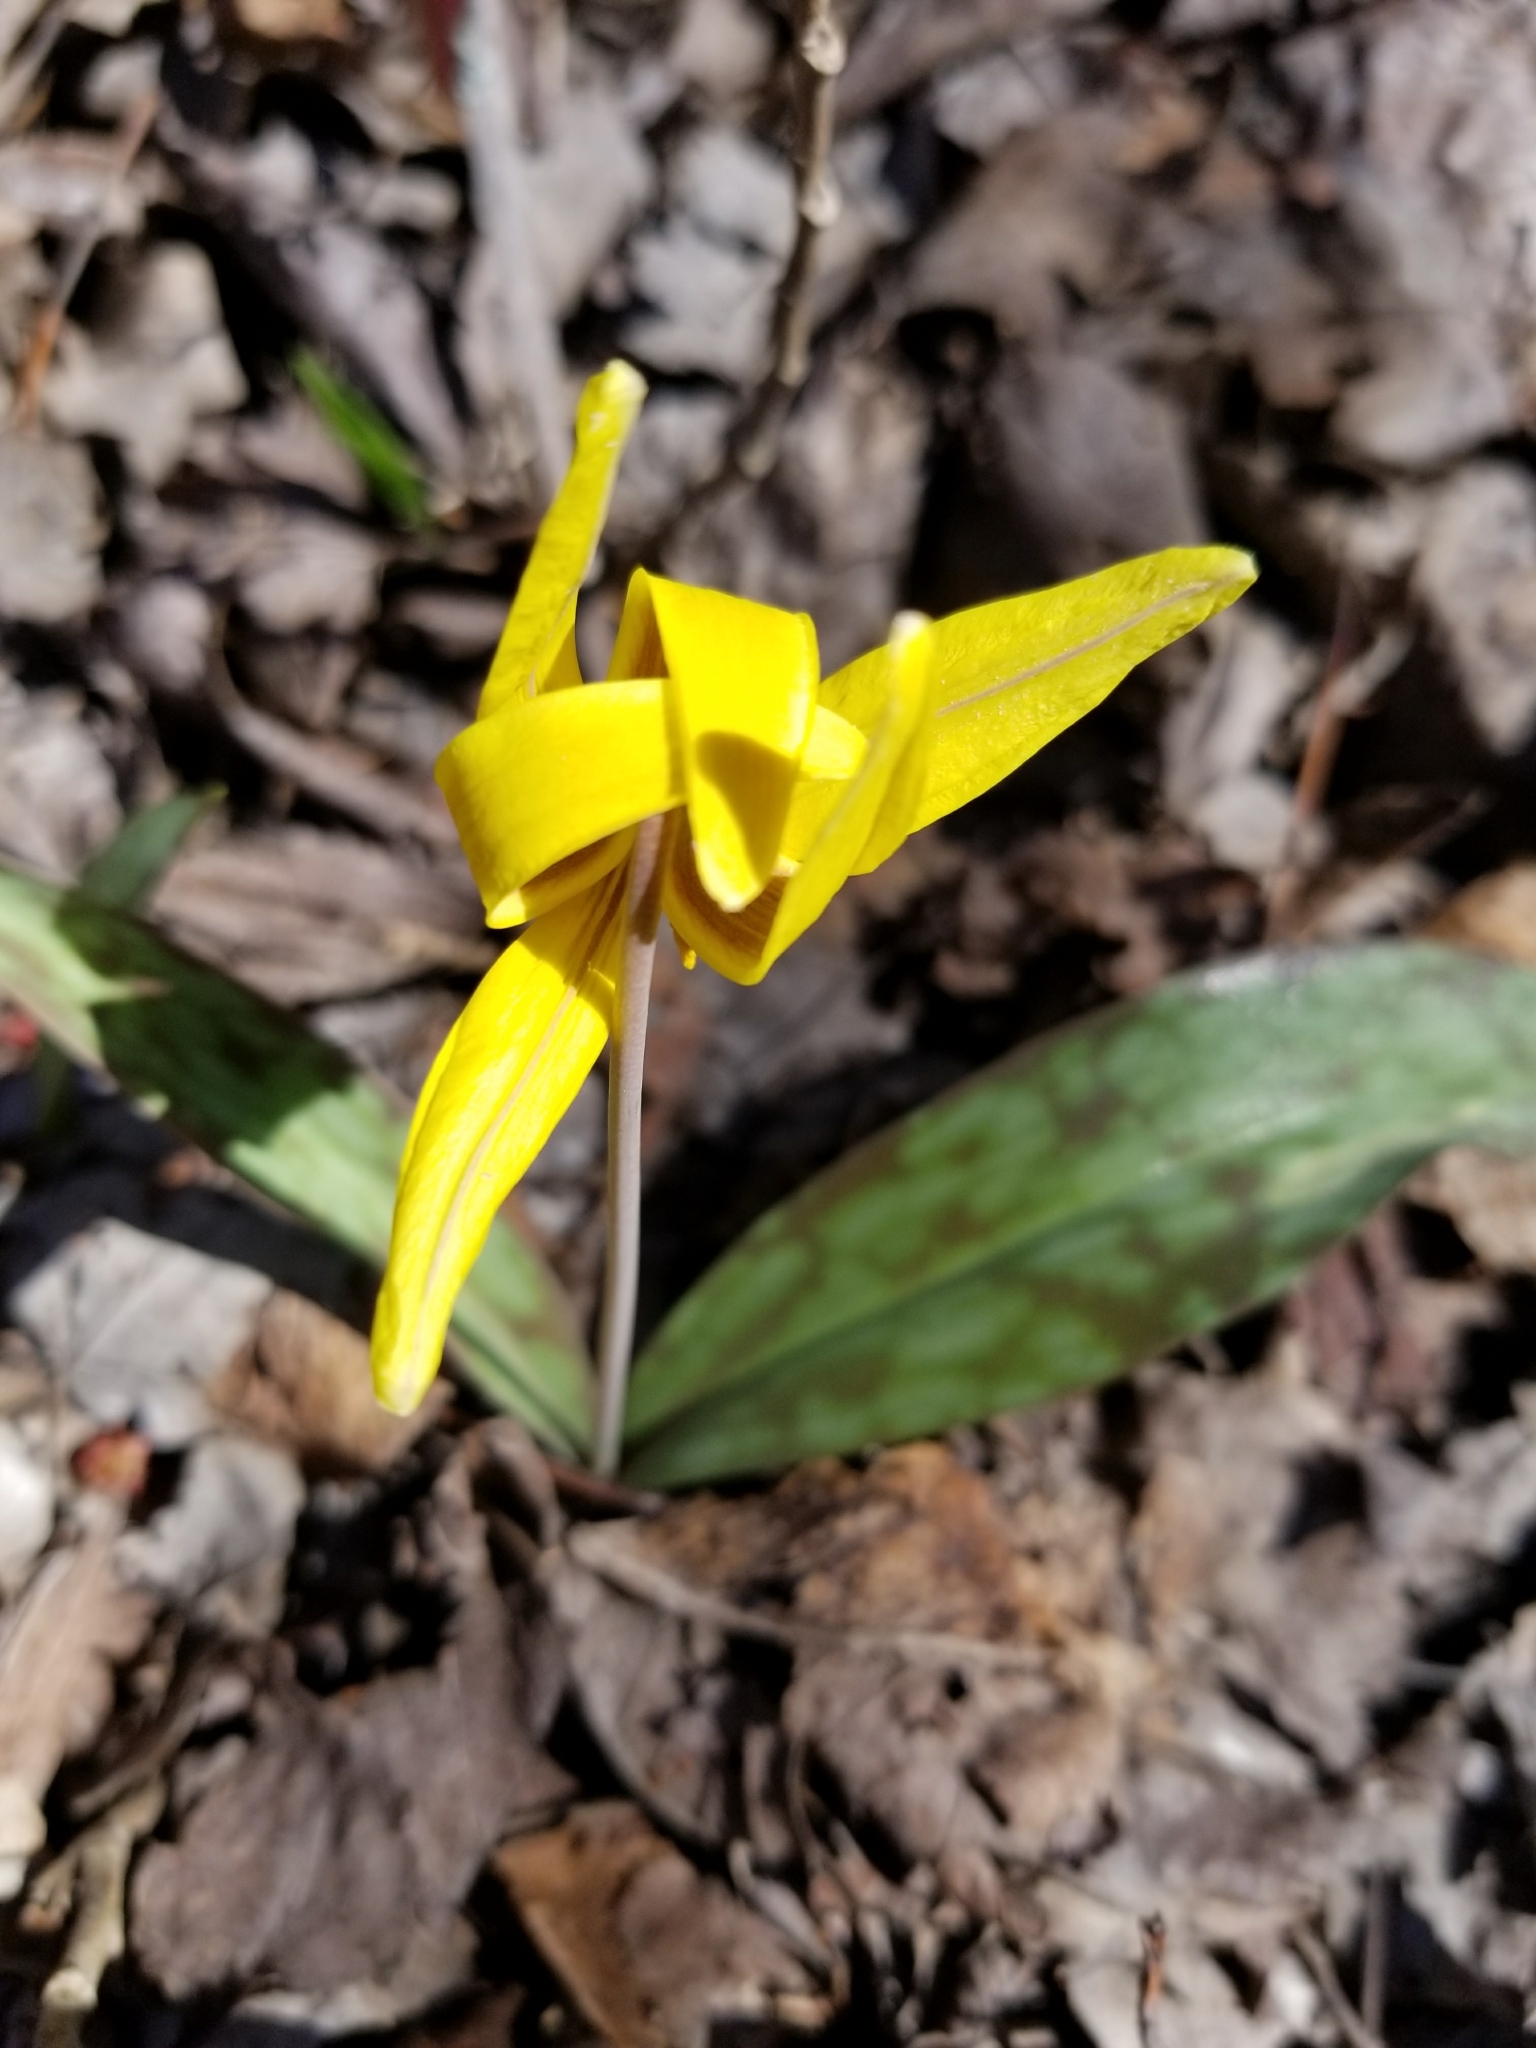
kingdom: Plantae
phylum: Tracheophyta
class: Liliopsida
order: Liliales
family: Liliaceae
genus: Erythronium
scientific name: Erythronium americanum
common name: Yellow adder's-tongue
